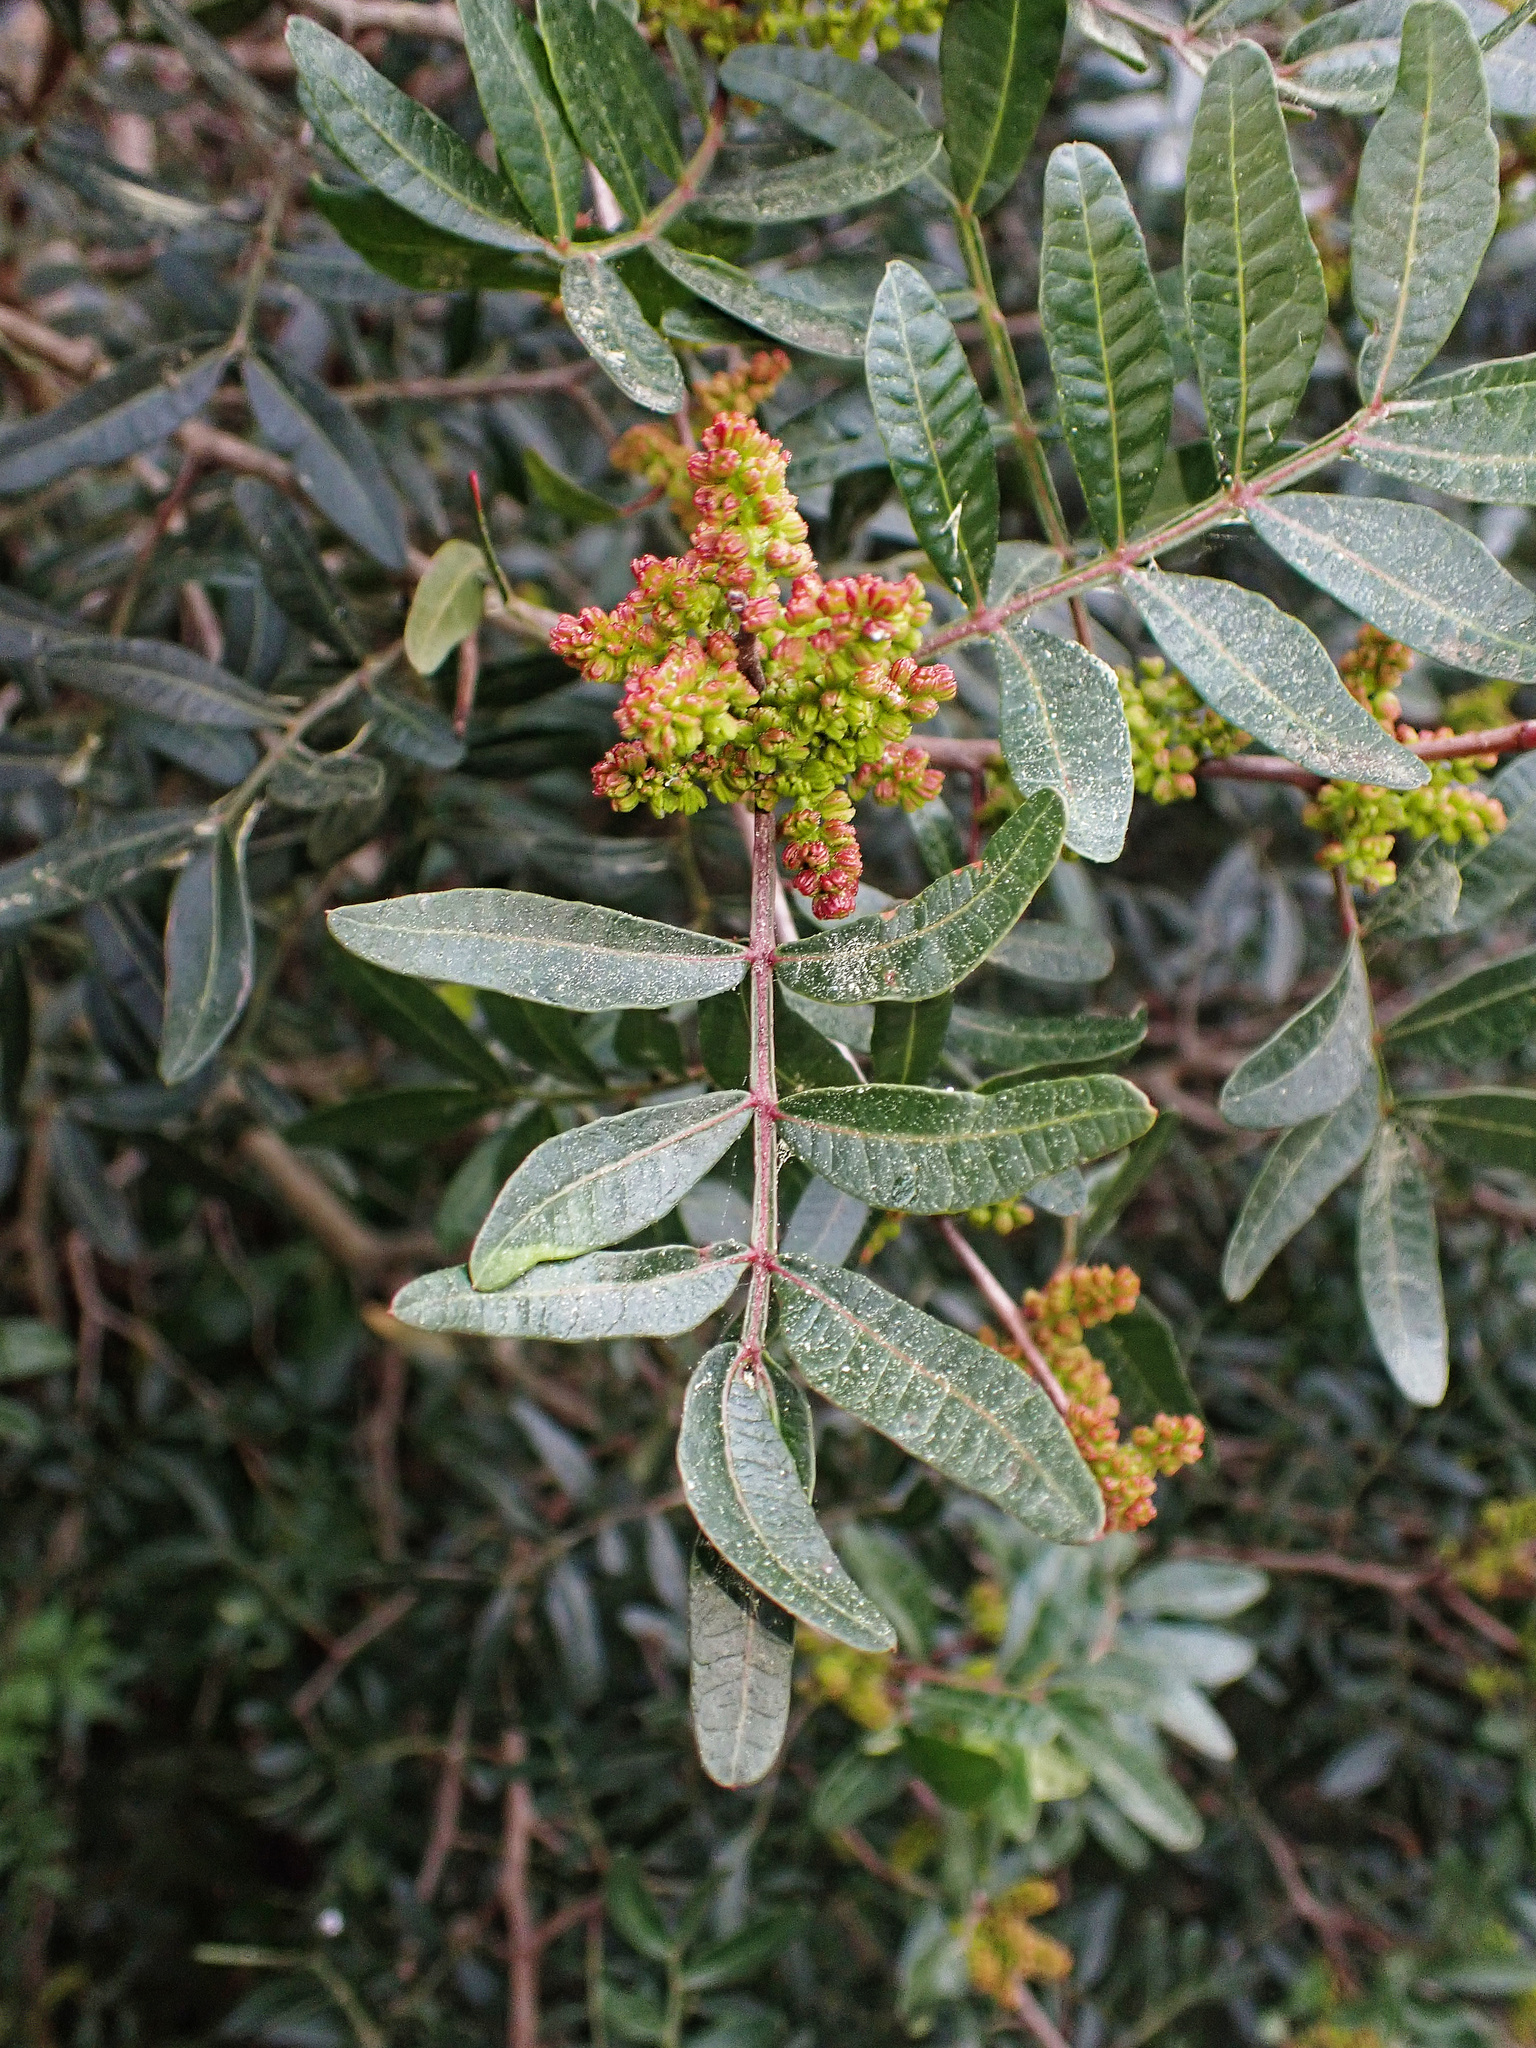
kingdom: Plantae
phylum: Tracheophyta
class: Magnoliopsida
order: Sapindales
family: Anacardiaceae
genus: Pistacia
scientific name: Pistacia lentiscus
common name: Lentisk
